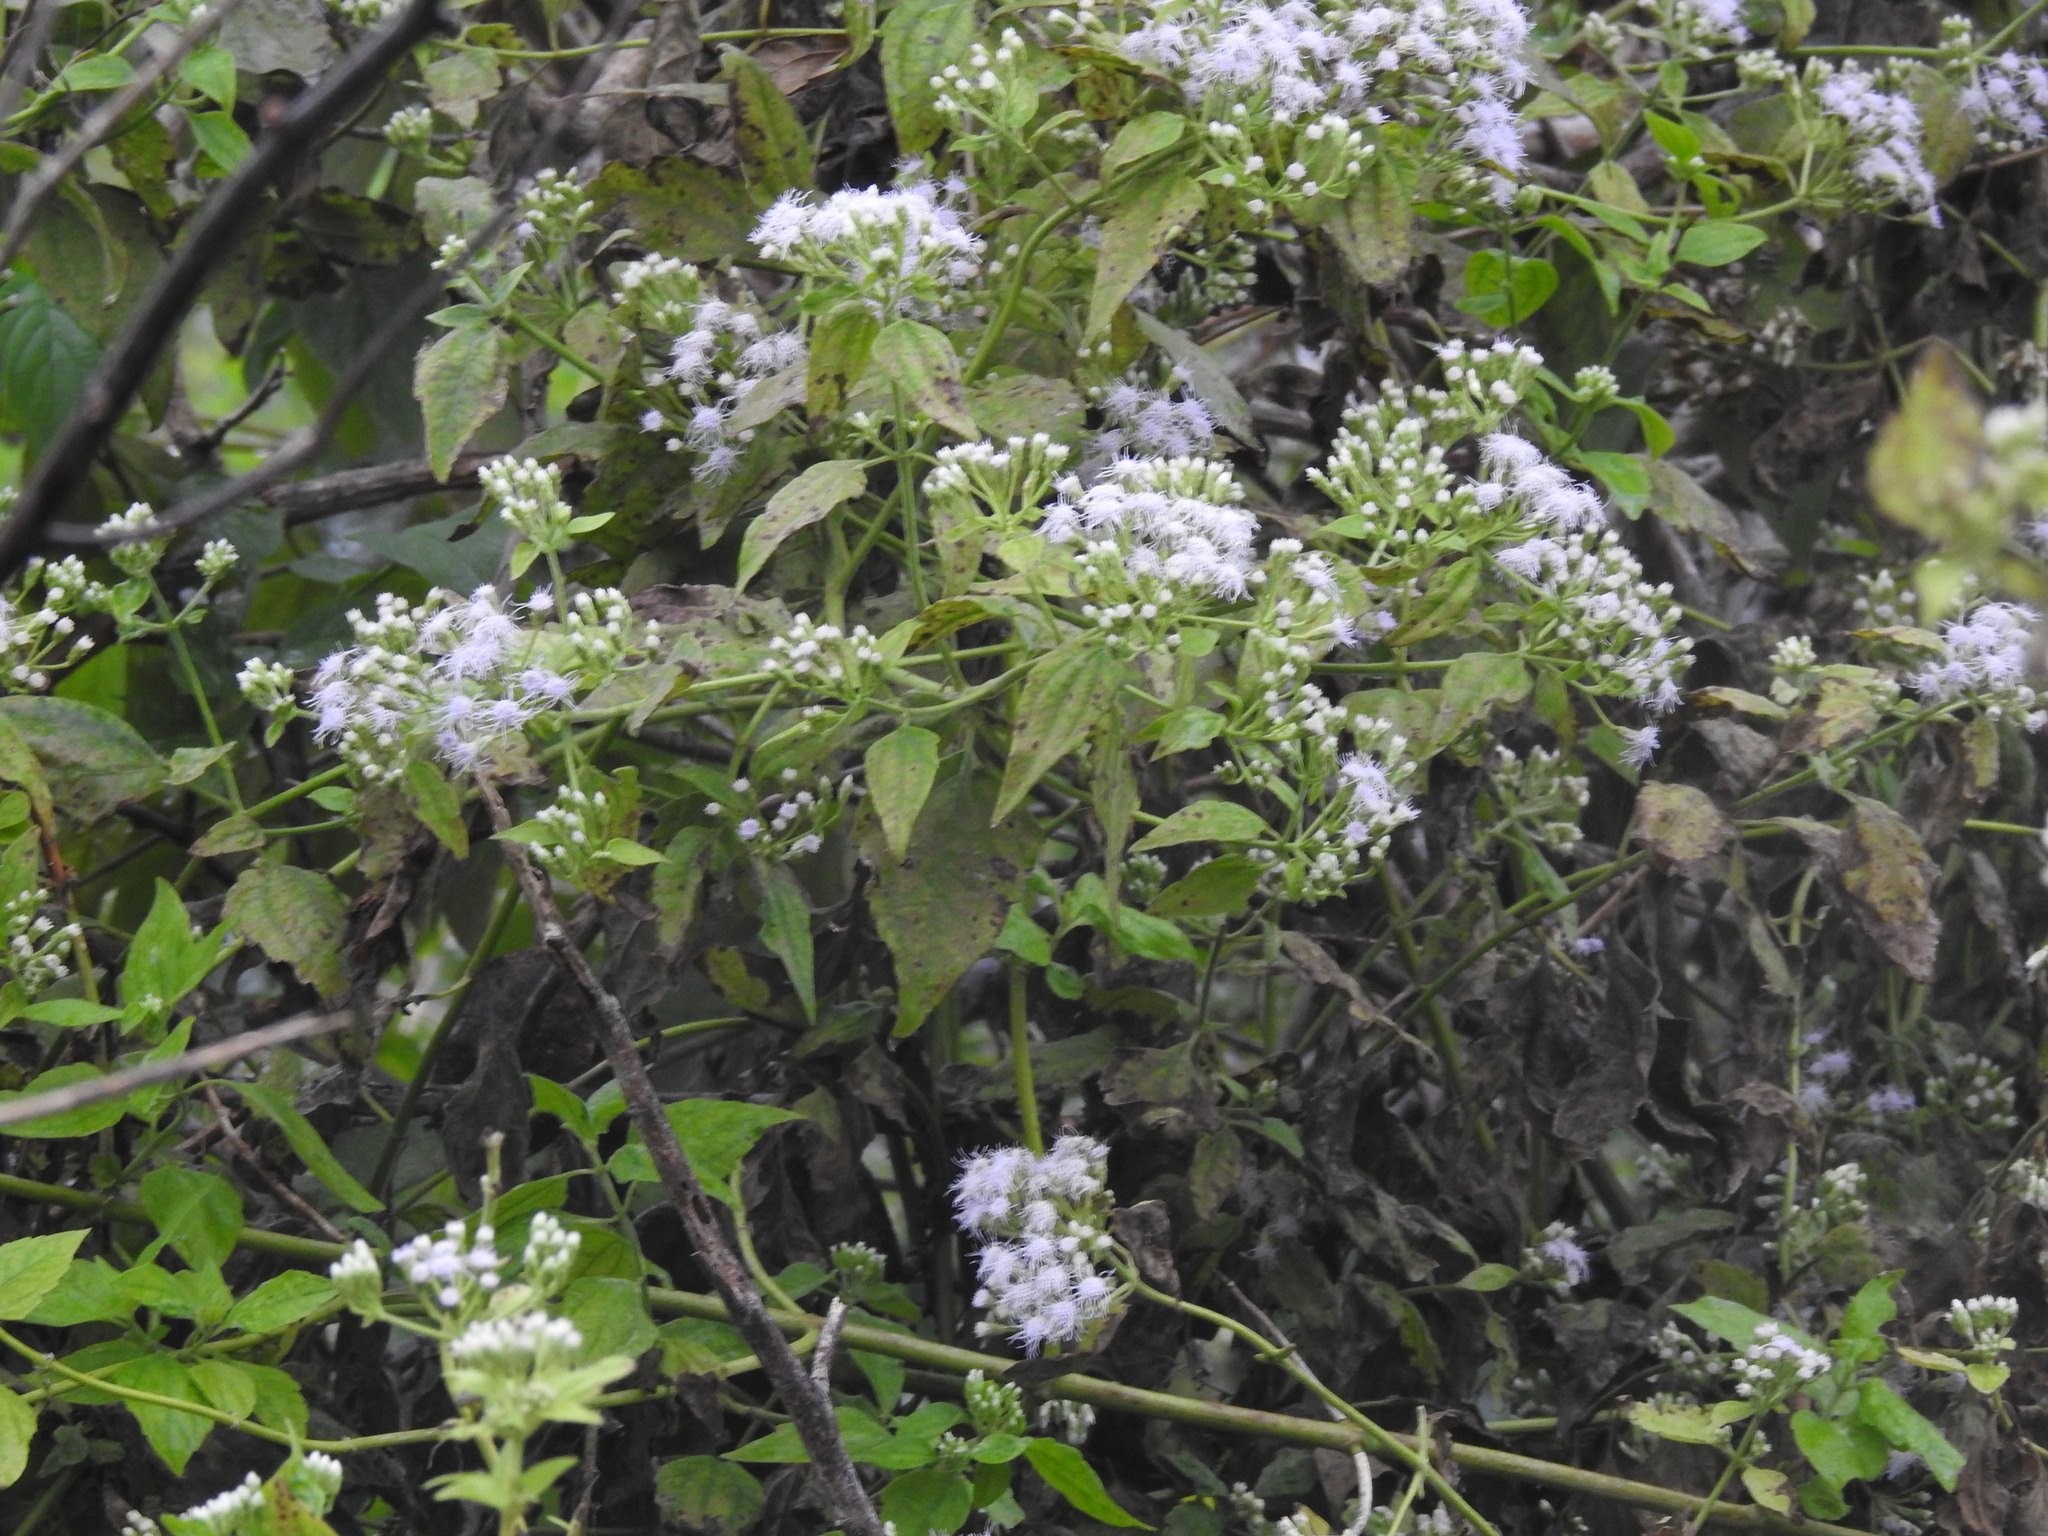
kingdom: Plantae
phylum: Tracheophyta
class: Magnoliopsida
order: Asterales
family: Asteraceae
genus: Chromolaena
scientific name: Chromolaena odorata
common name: Siamweed
